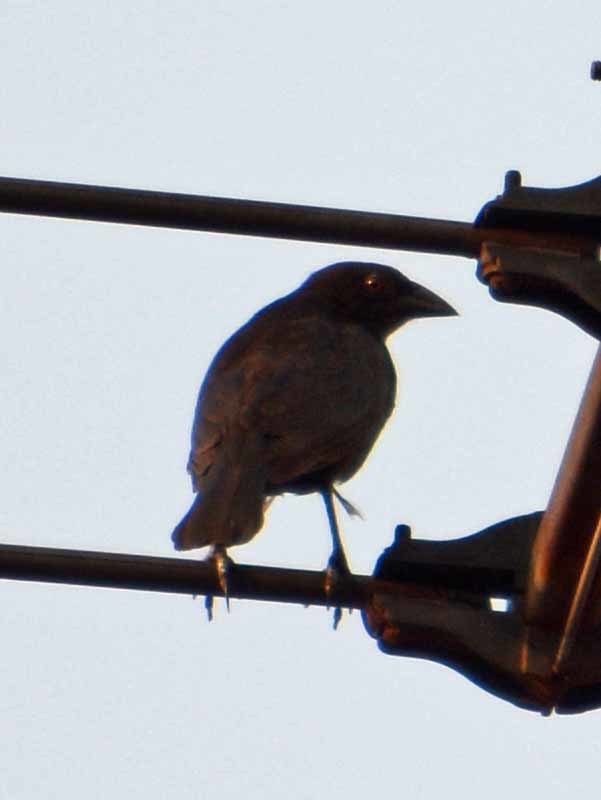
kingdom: Animalia
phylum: Chordata
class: Aves
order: Passeriformes
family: Icteridae
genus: Molothrus
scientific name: Molothrus aeneus
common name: Bronzed cowbird
